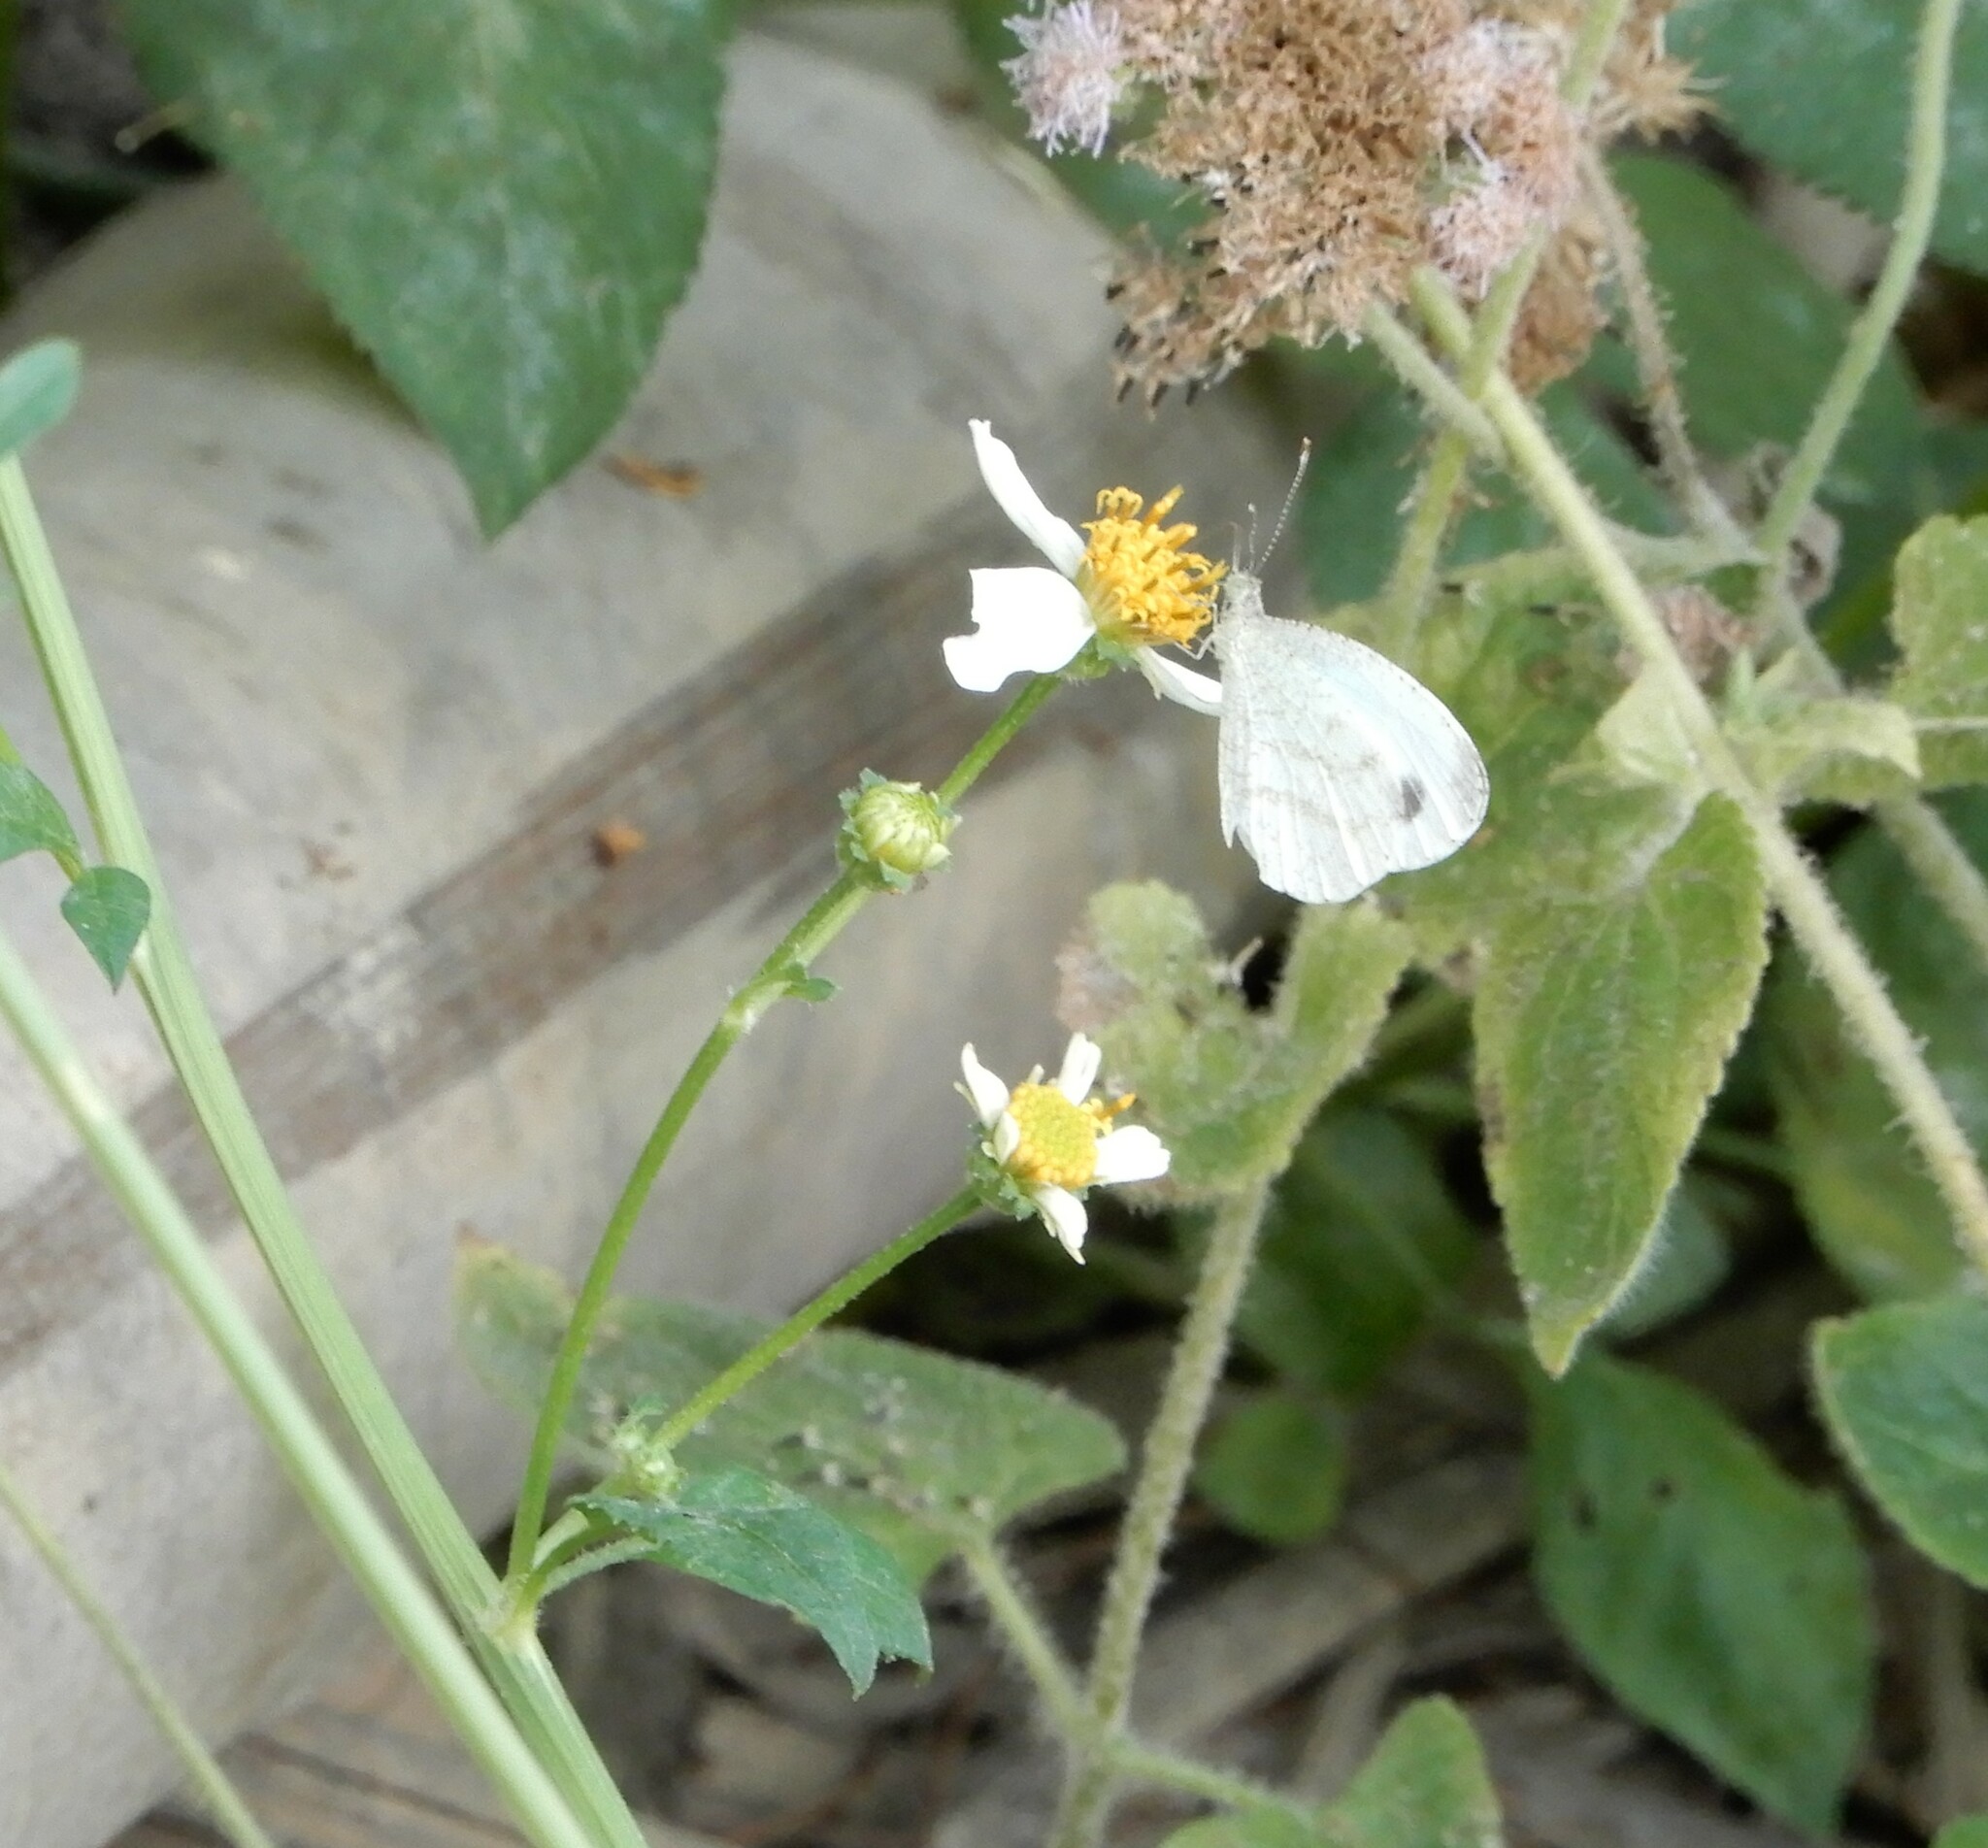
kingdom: Animalia
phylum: Arthropoda
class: Insecta
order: Lepidoptera
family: Pieridae
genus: Leptosia
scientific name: Leptosia nina
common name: Psyche
